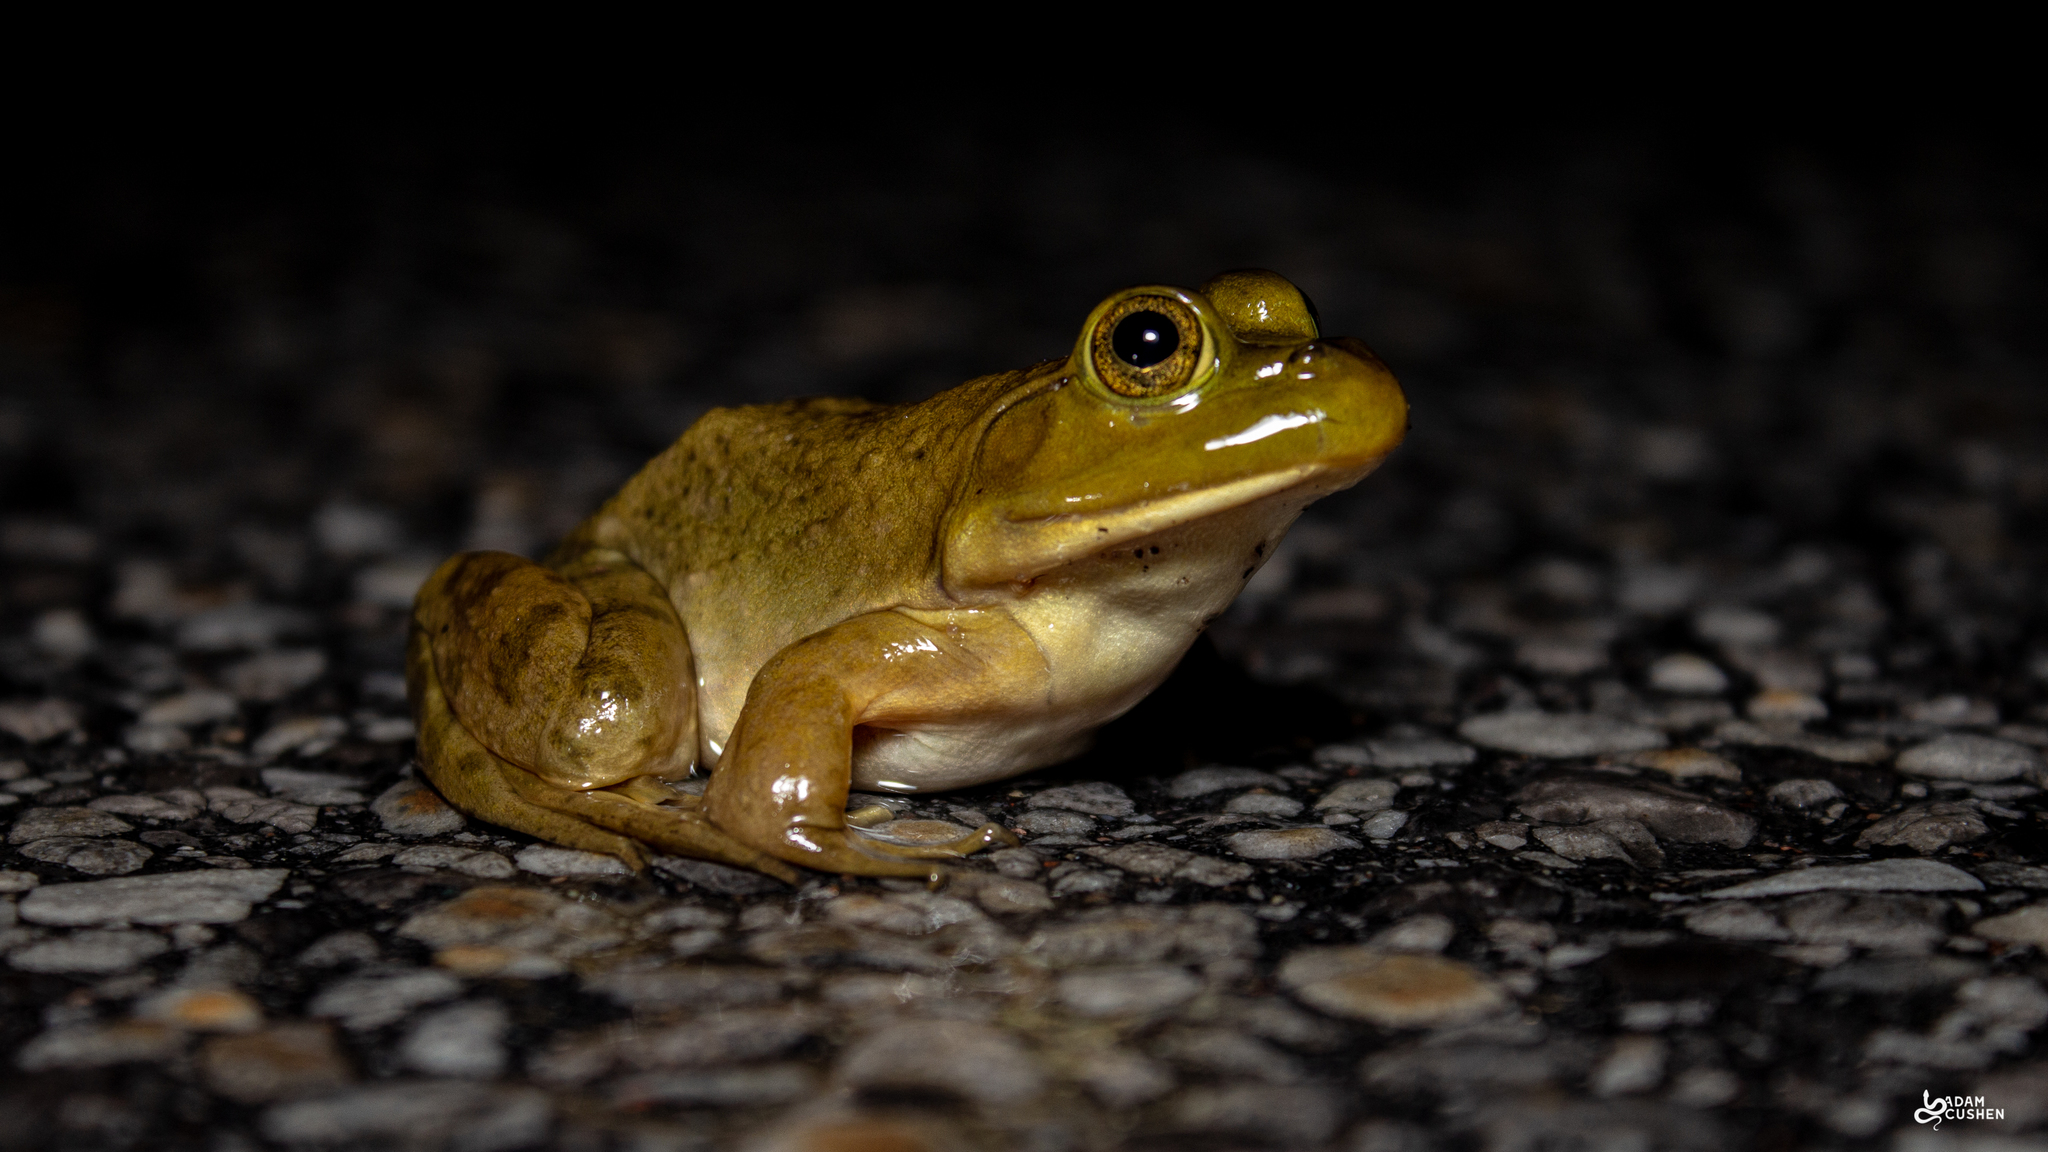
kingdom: Animalia
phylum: Chordata
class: Amphibia
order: Anura
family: Ranidae
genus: Lithobates
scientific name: Lithobates catesbeianus
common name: American bullfrog
